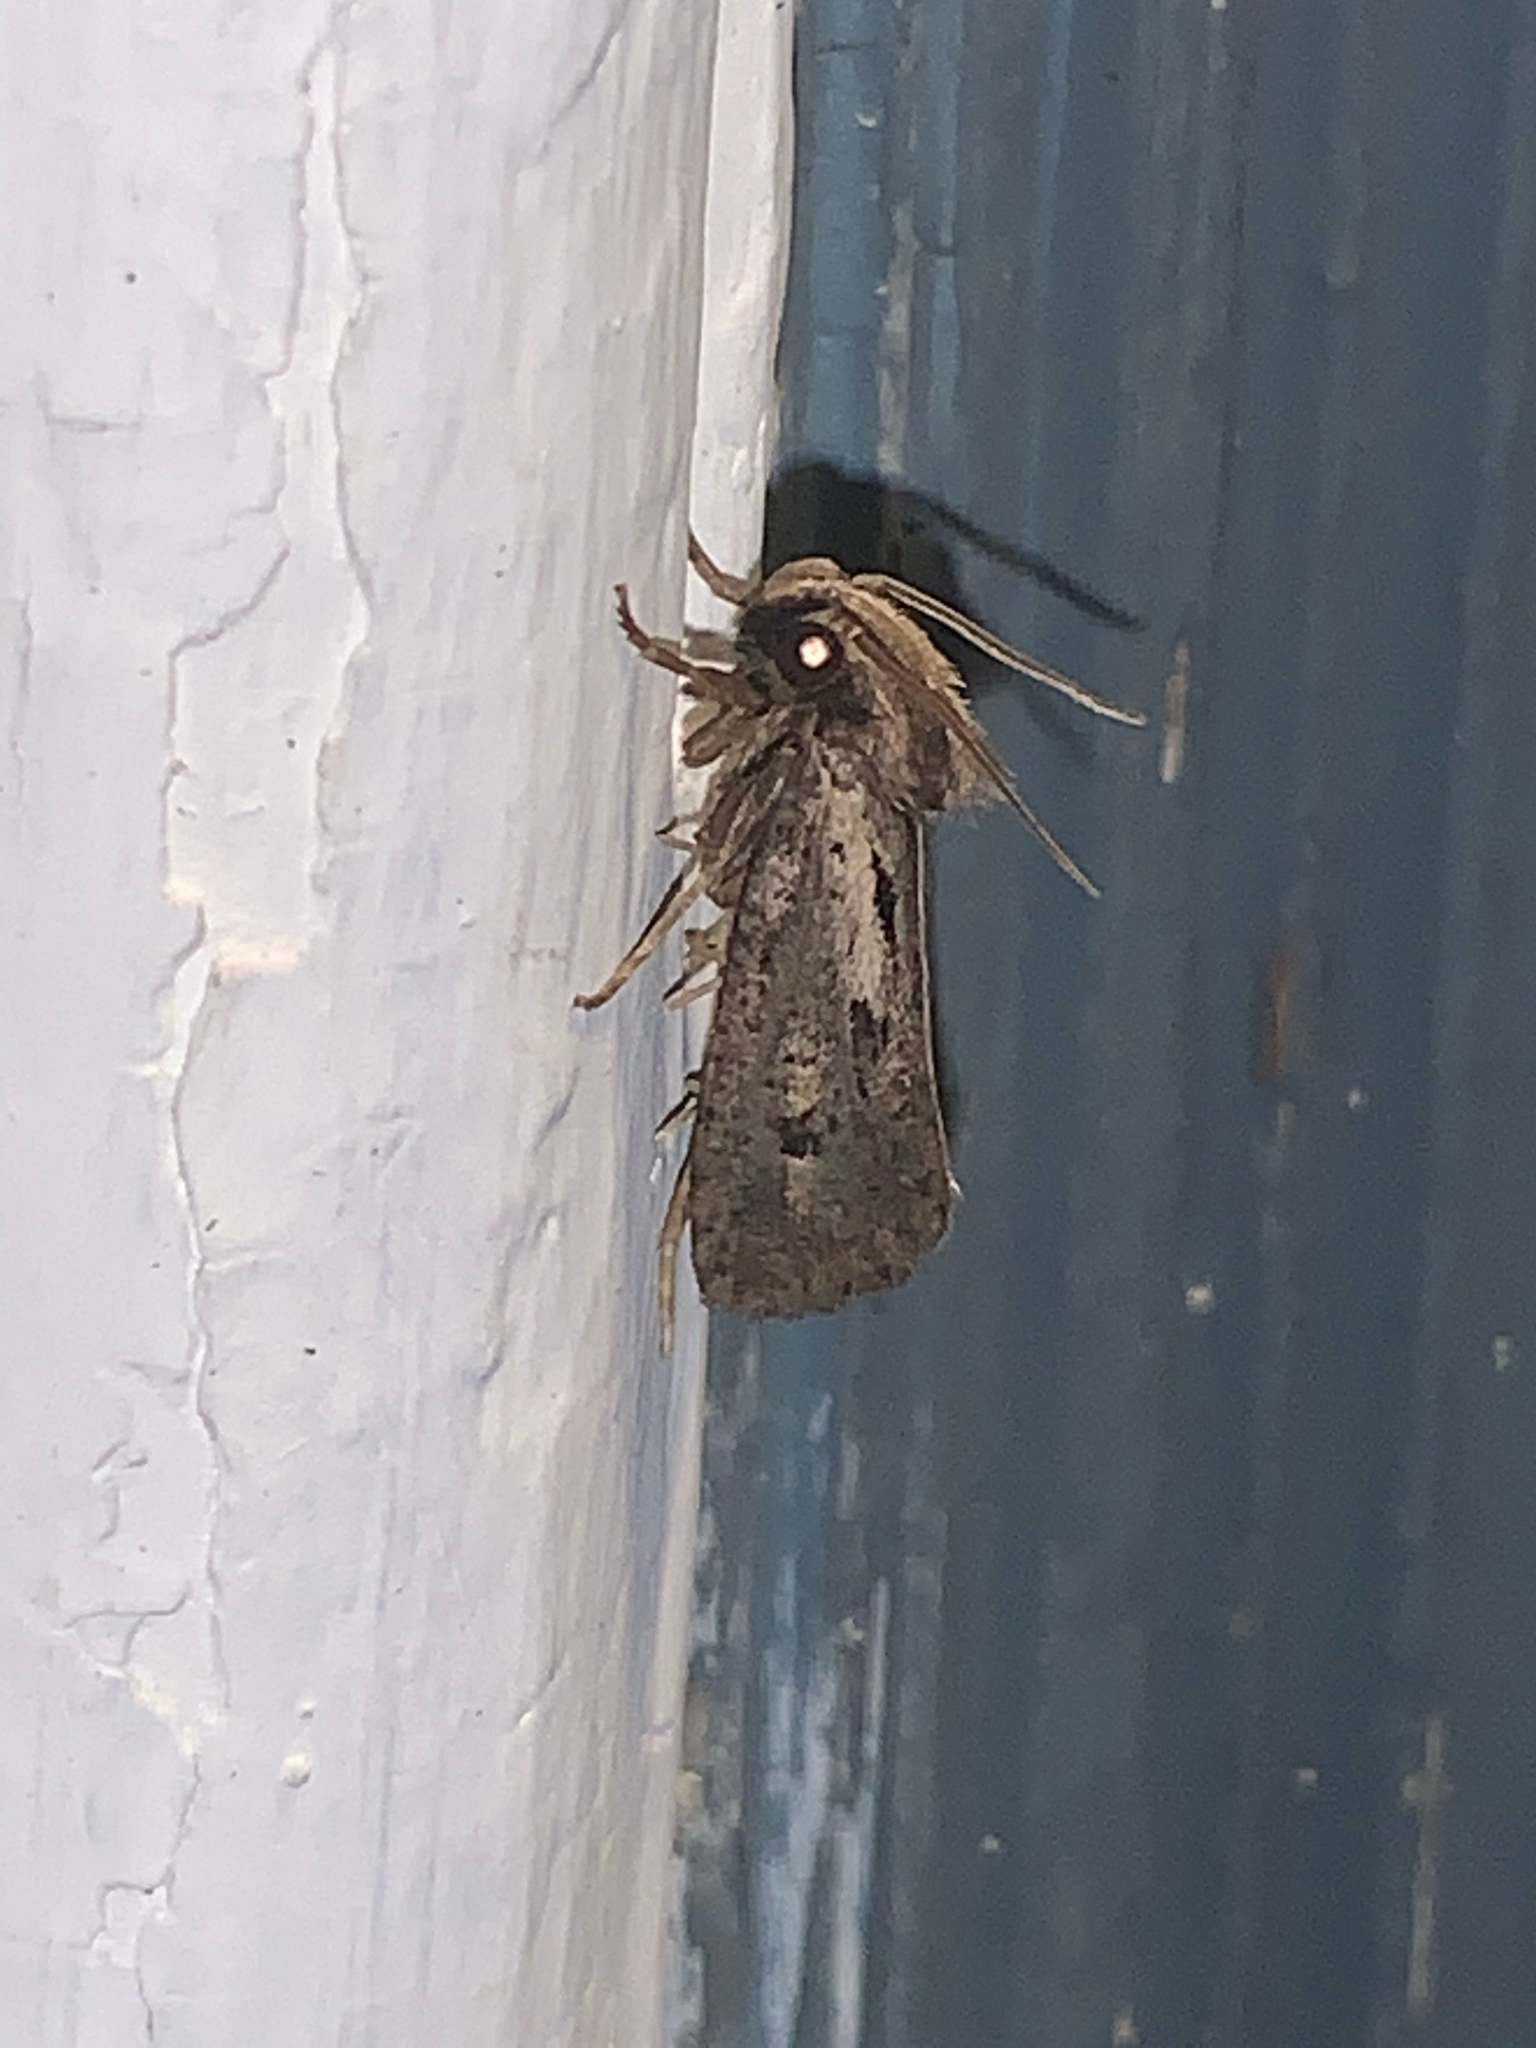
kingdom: Animalia
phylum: Arthropoda
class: Insecta
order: Lepidoptera
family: Tineidae
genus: Acrolophus
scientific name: Acrolophus popeanella
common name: Clemens' grass tubeworm moth
